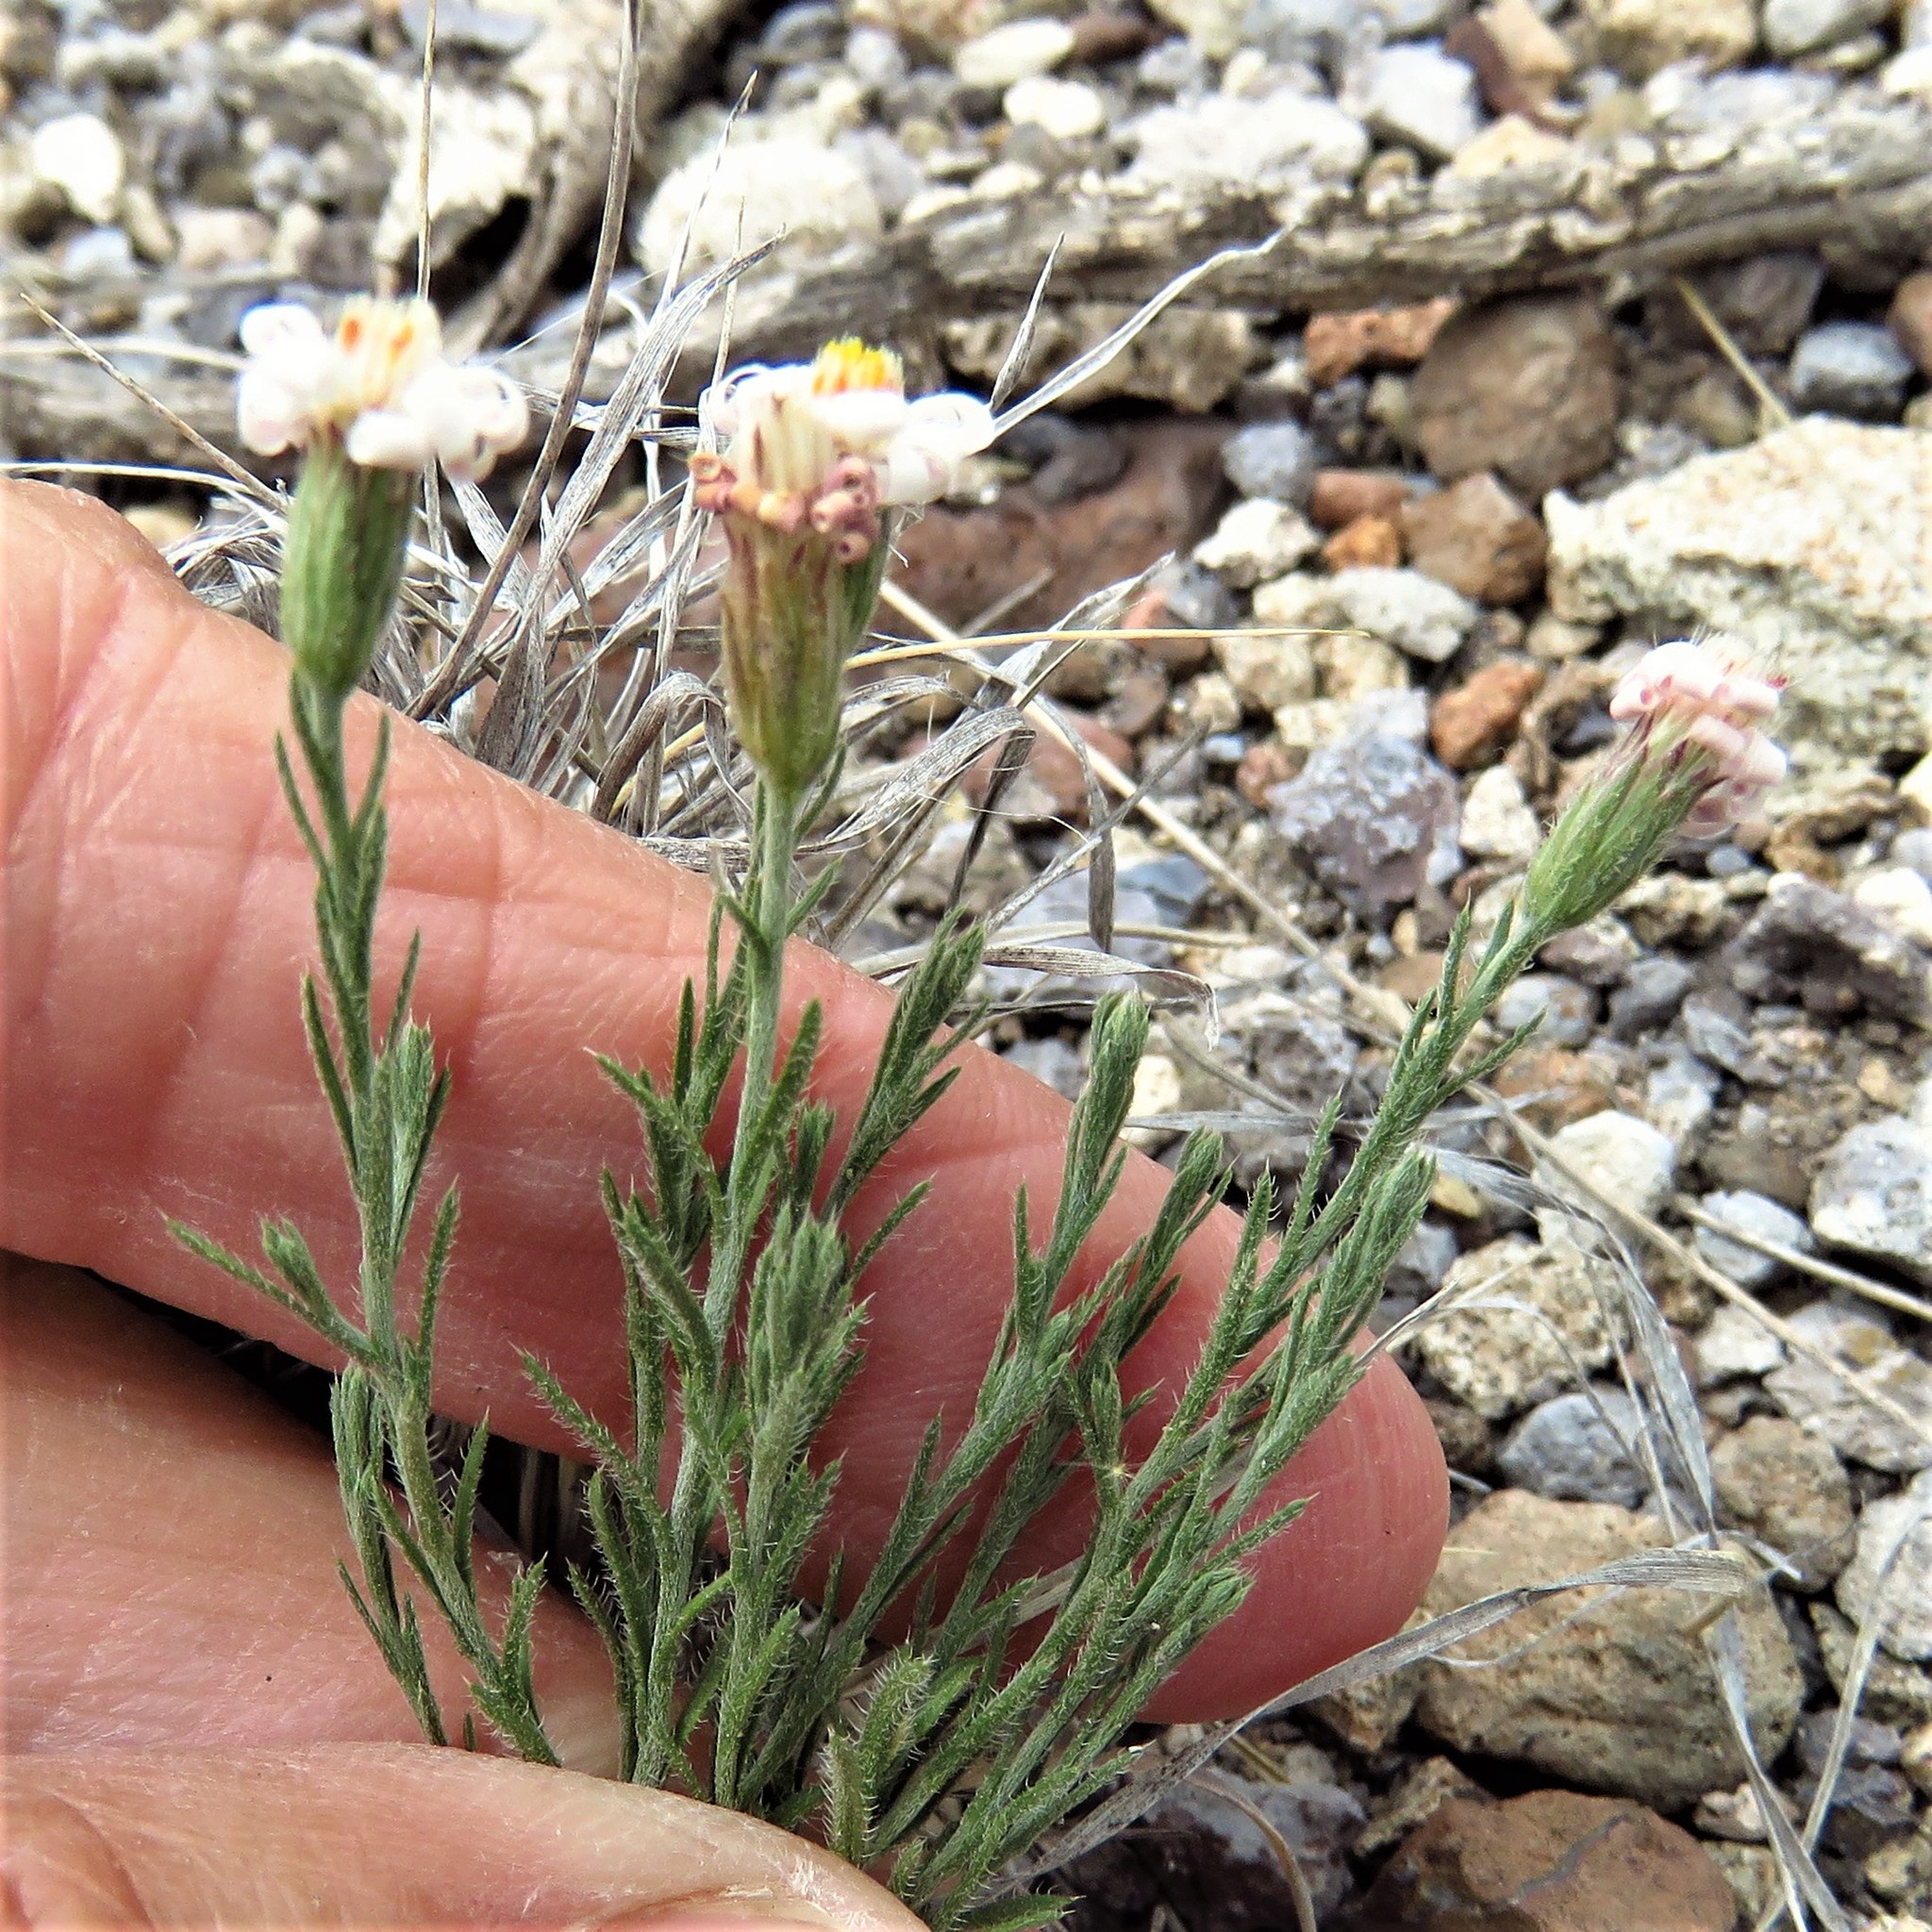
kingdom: Plantae
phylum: Tracheophyta
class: Magnoliopsida
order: Asterales
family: Asteraceae
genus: Chaetopappa
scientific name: Chaetopappa ericoides
